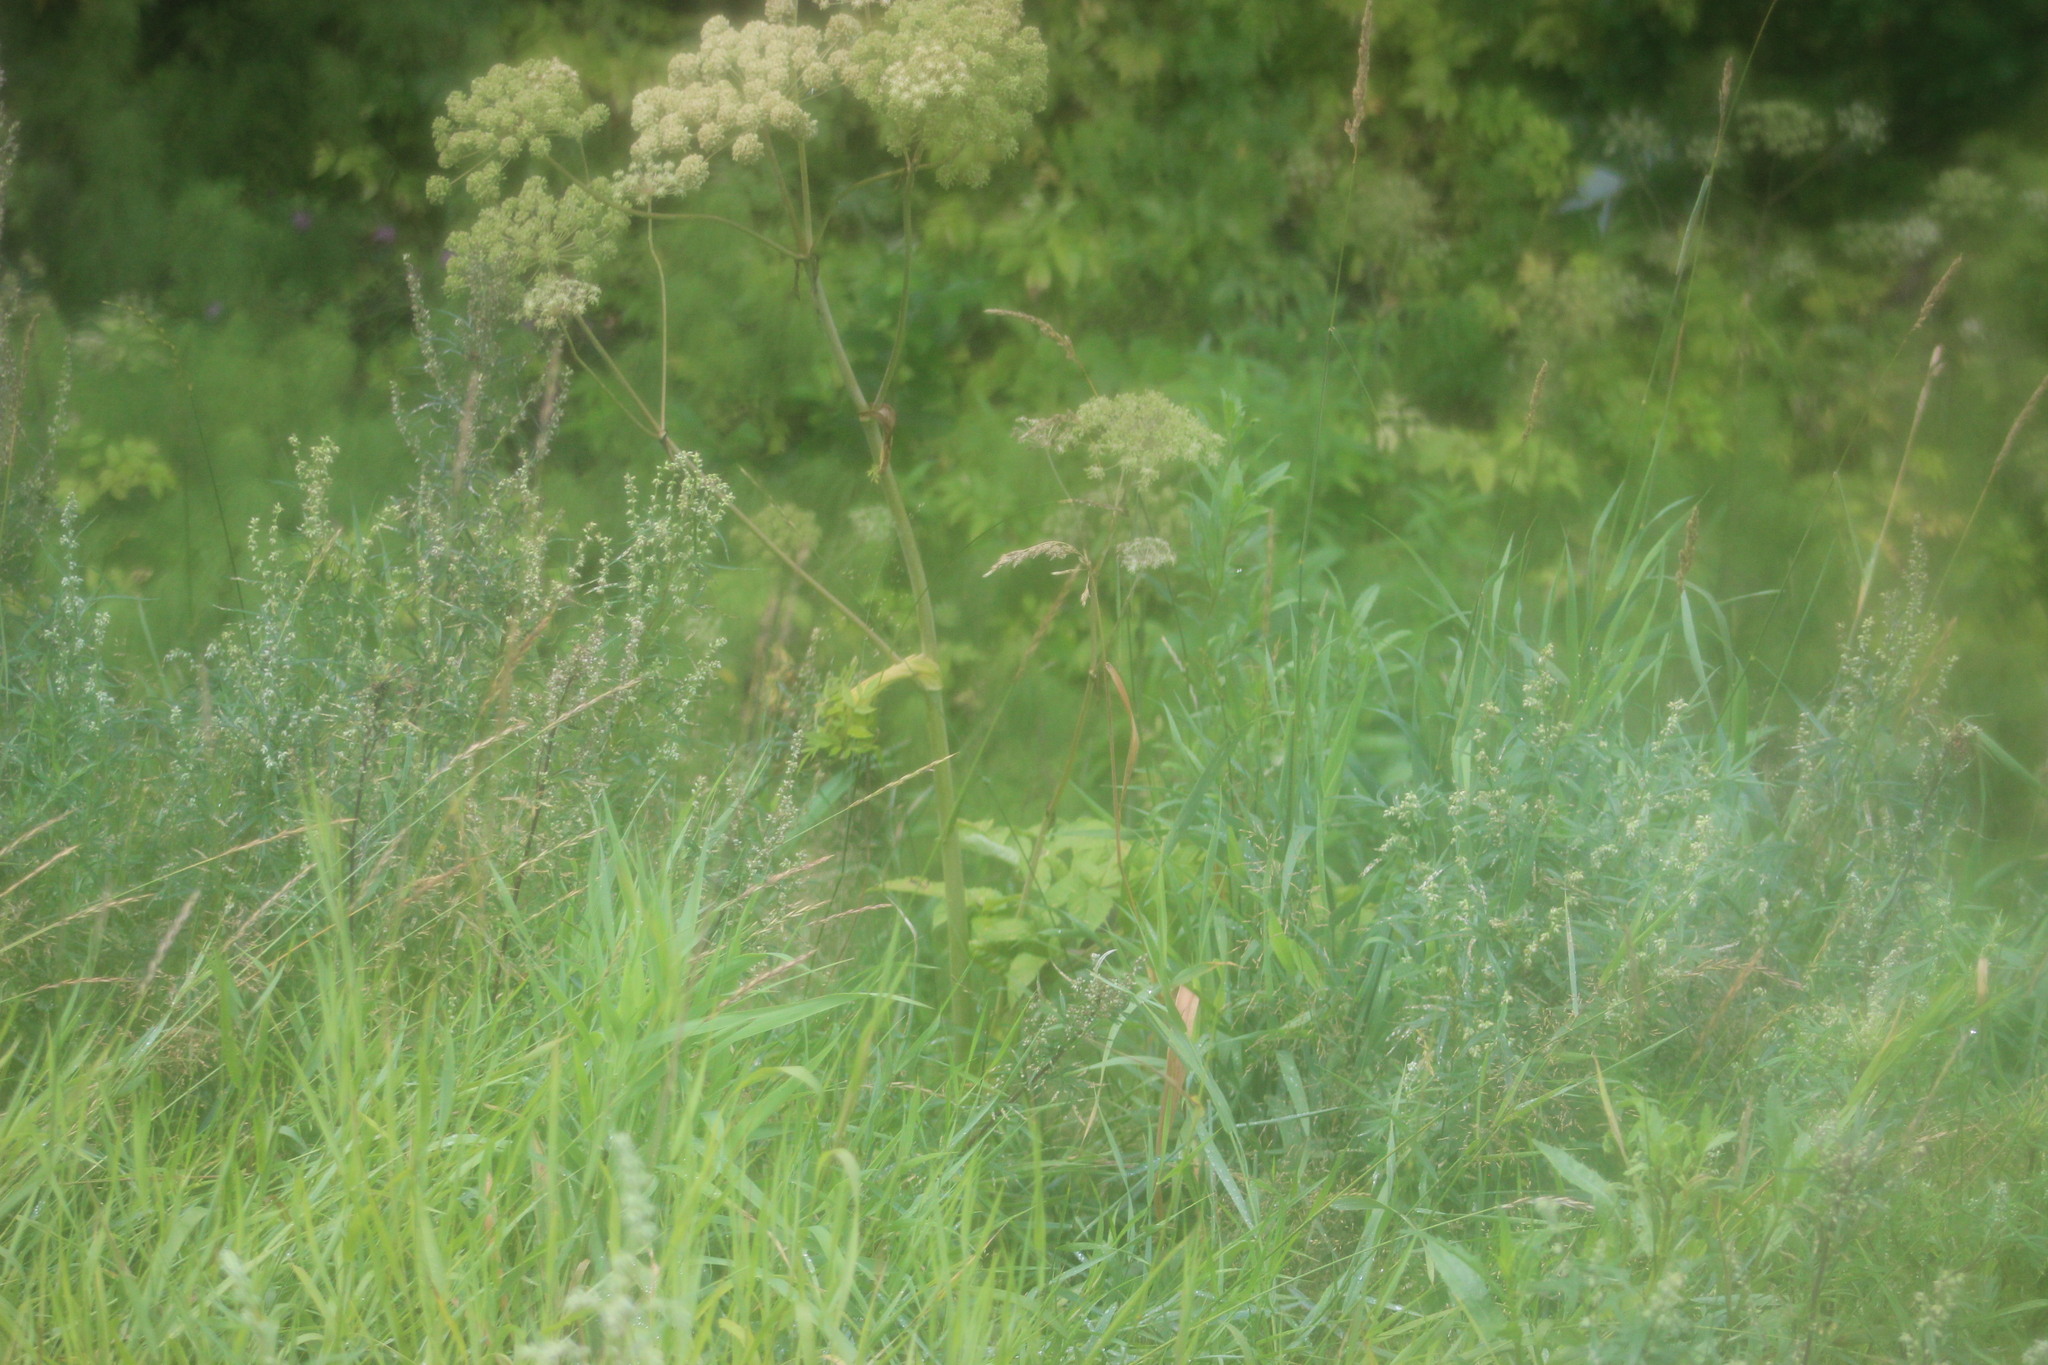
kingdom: Plantae
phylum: Tracheophyta
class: Magnoliopsida
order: Apiales
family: Apiaceae
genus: Angelica
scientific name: Angelica sylvestris
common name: Wild angelica
